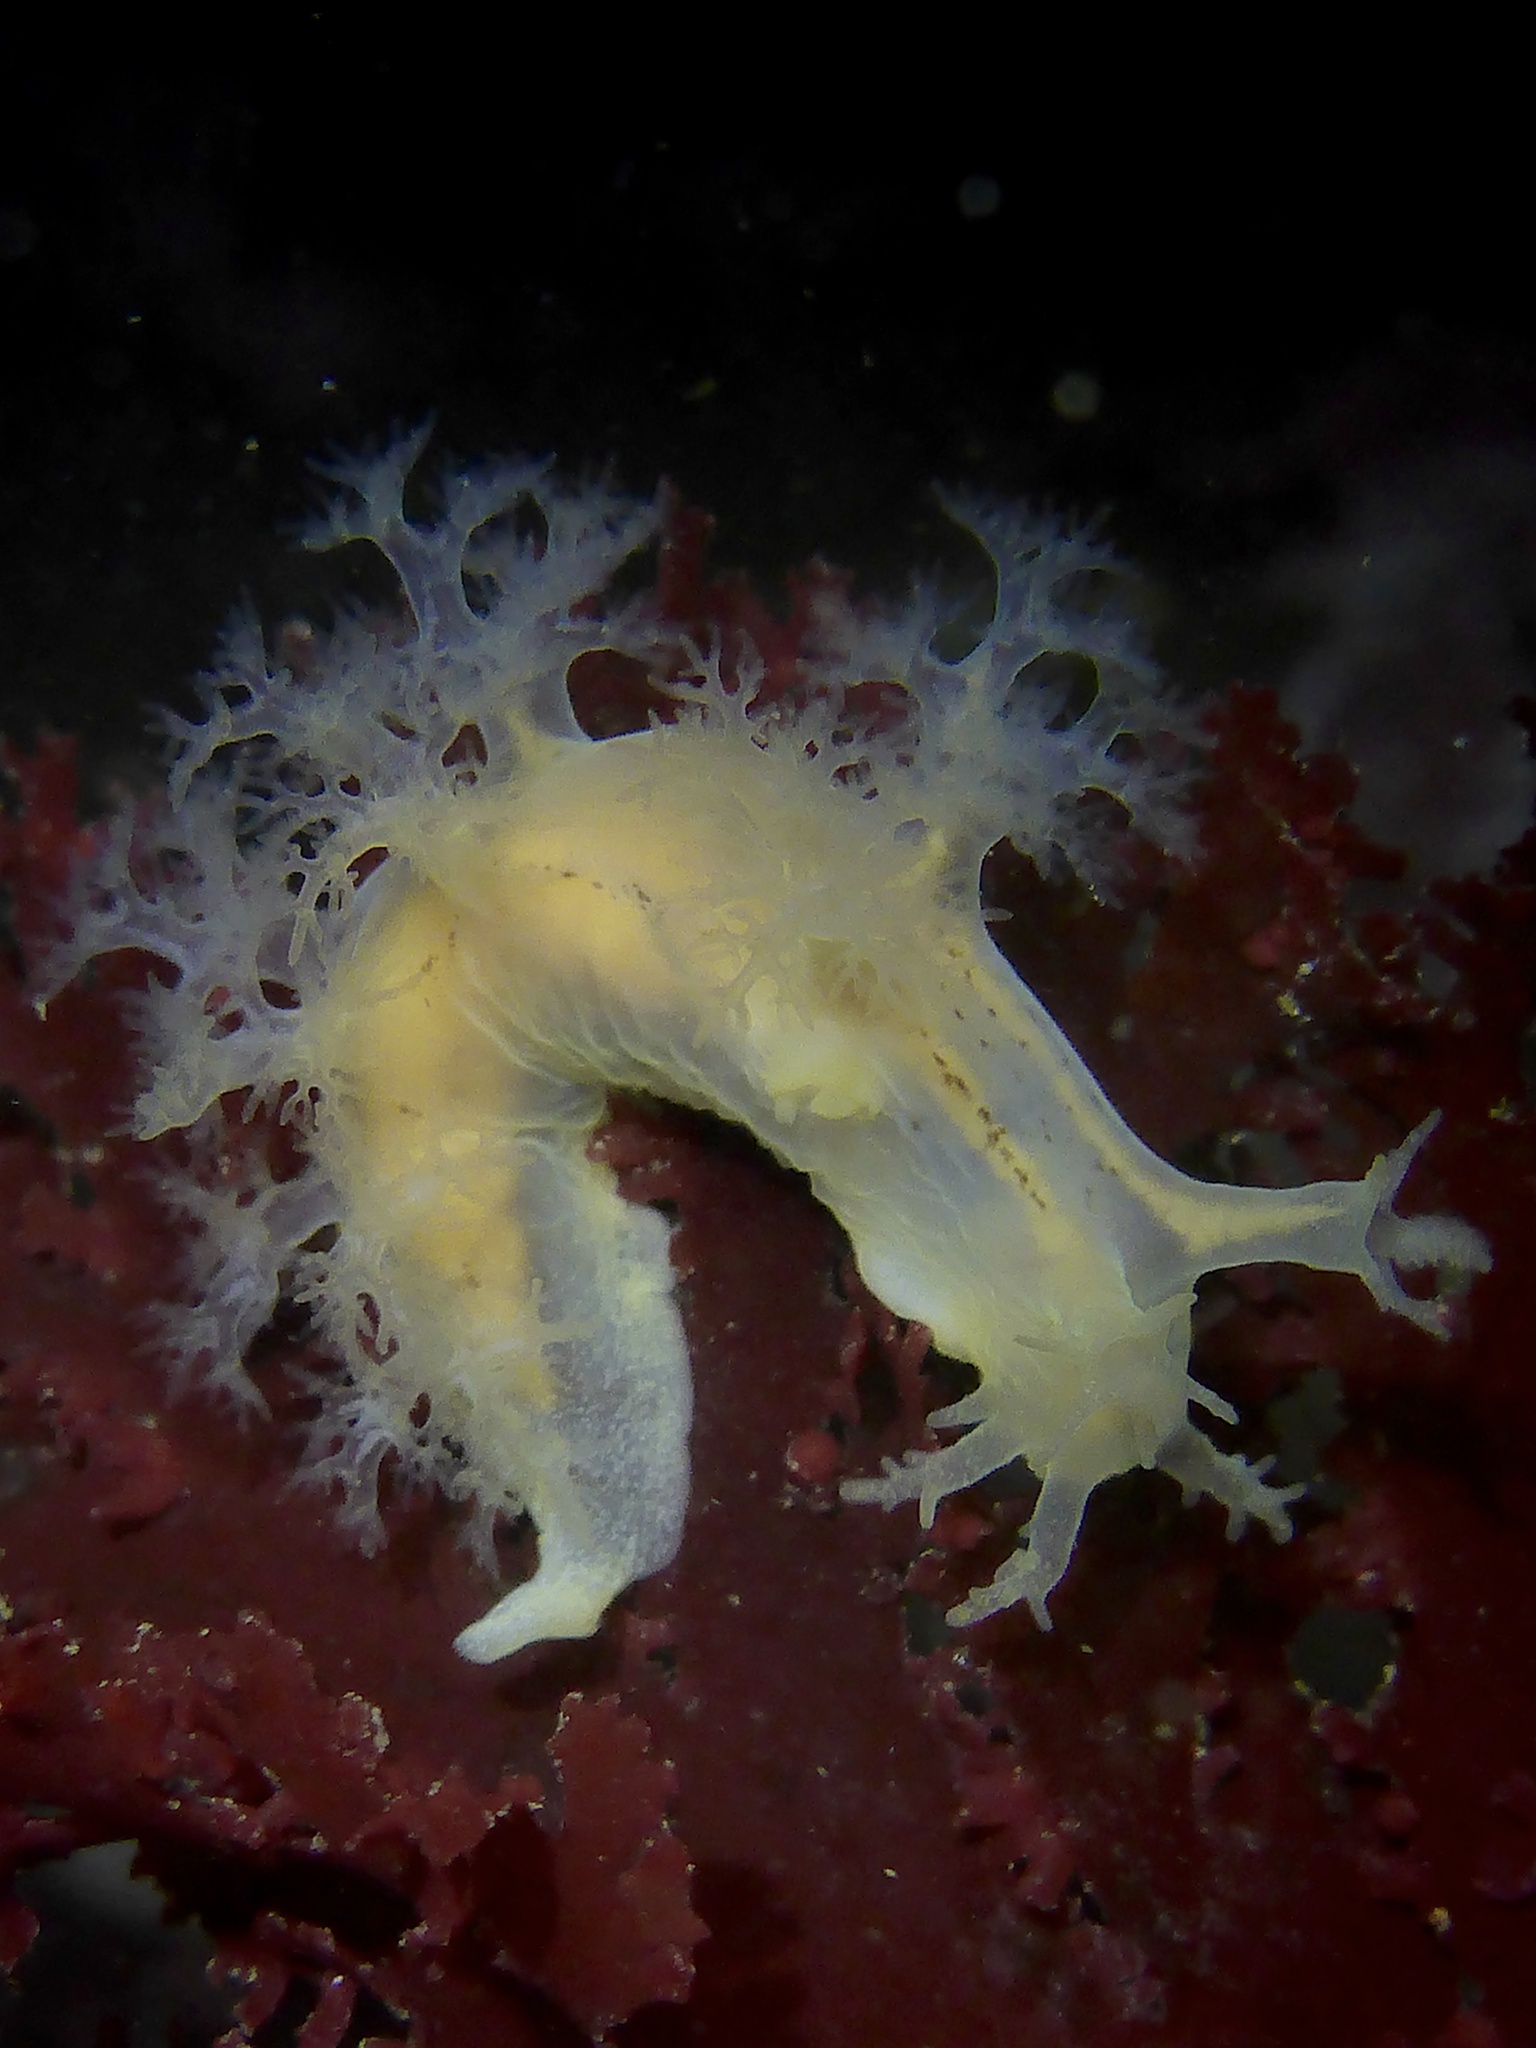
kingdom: Animalia
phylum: Mollusca
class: Gastropoda
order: Nudibranchia
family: Dendronotidae
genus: Dendronotus
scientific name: Dendronotus subramosus
